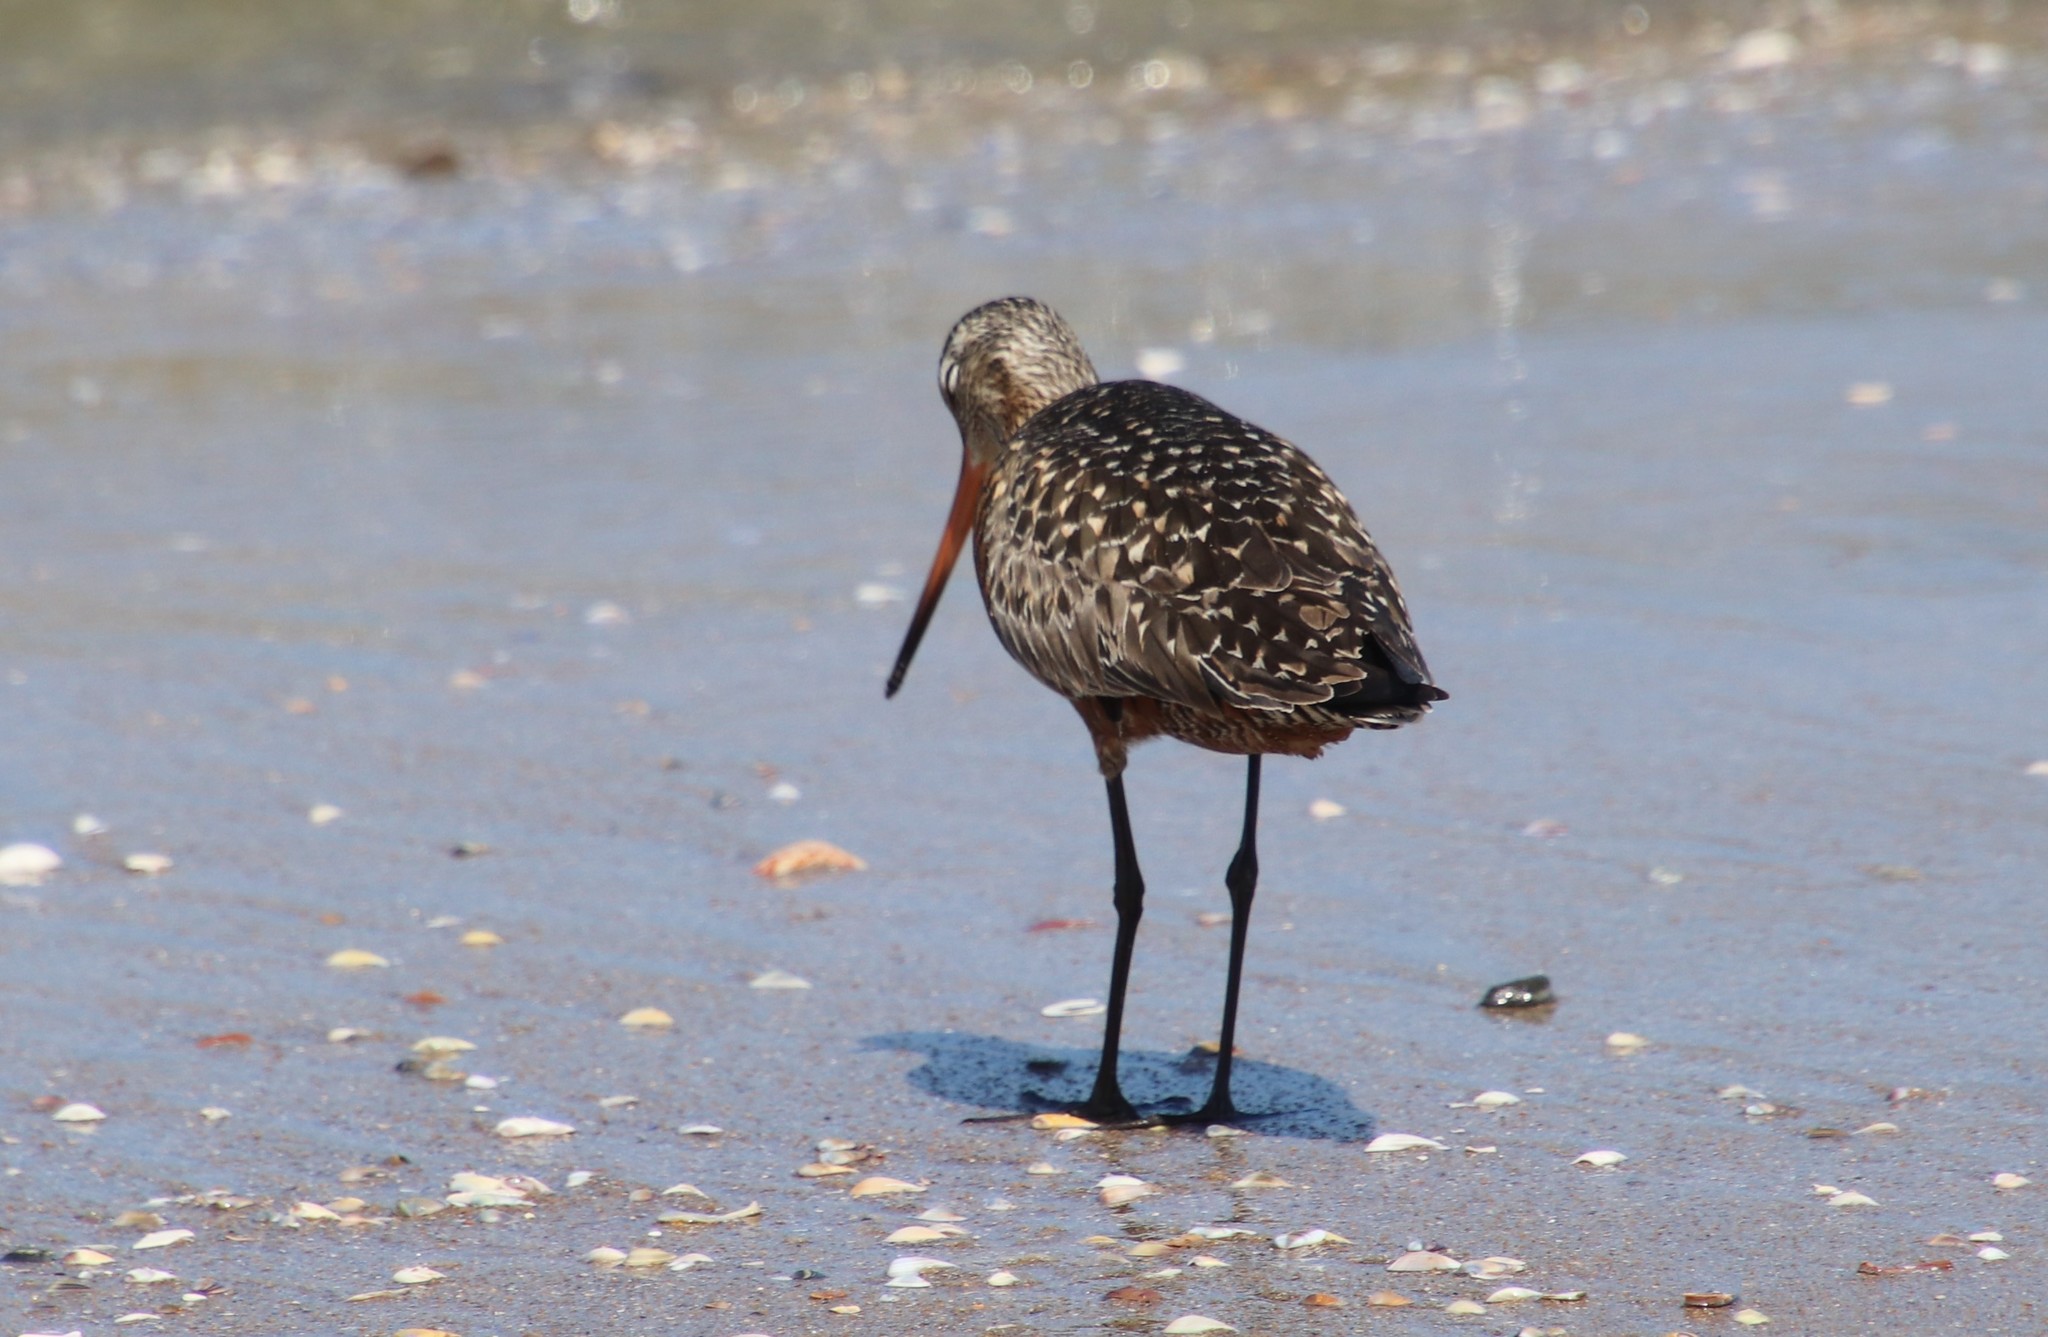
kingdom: Animalia
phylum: Chordata
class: Aves
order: Charadriiformes
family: Scolopacidae
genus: Limosa
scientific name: Limosa haemastica
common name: Hudsonian godwit
